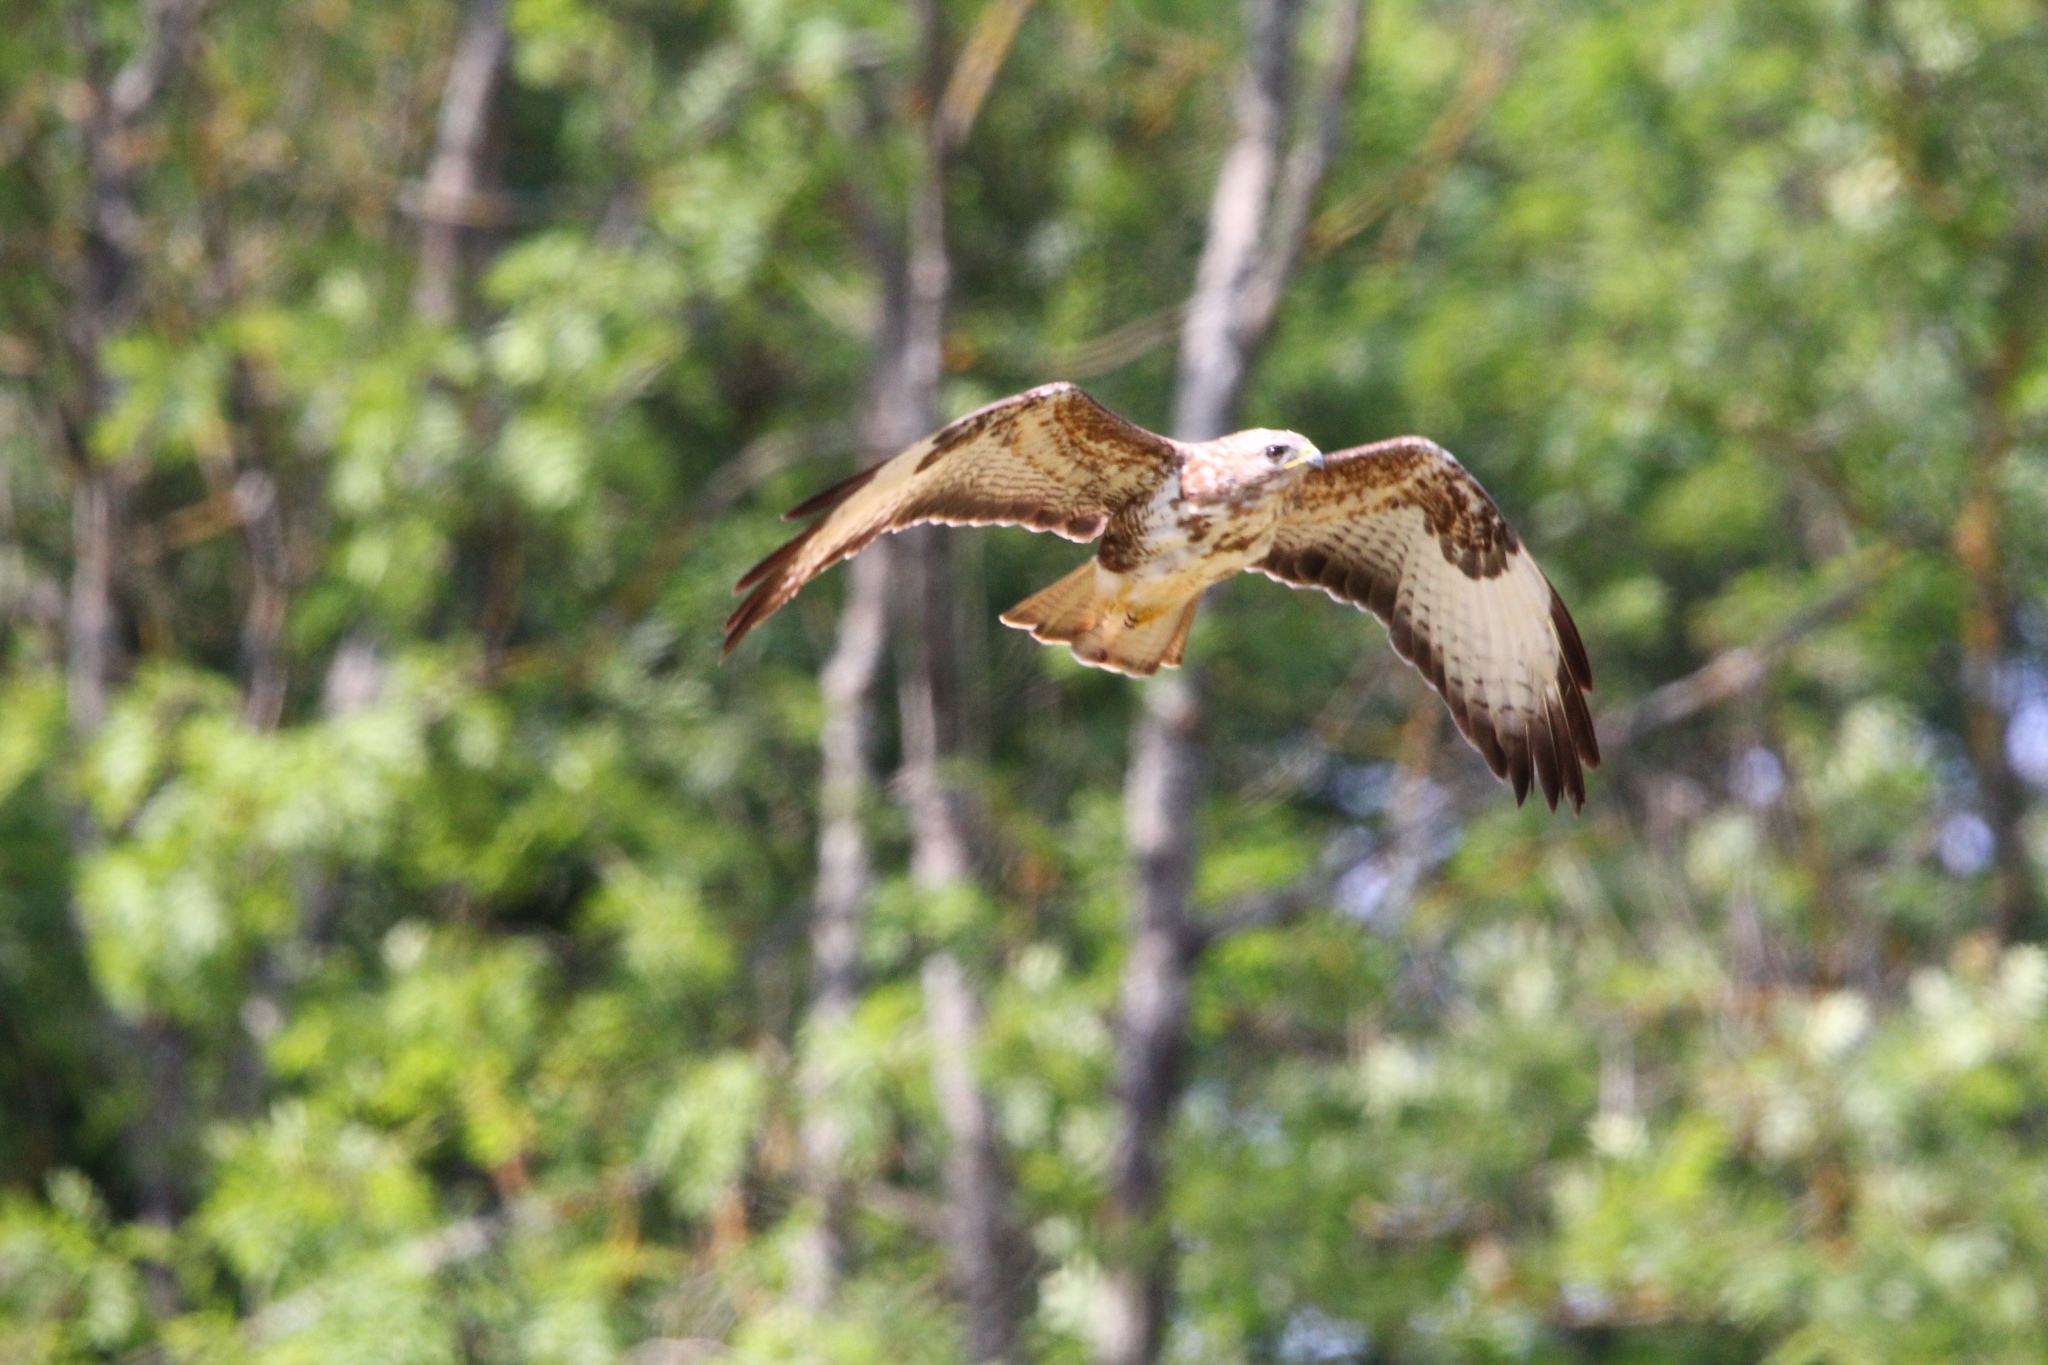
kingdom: Animalia
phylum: Chordata
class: Aves
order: Accipitriformes
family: Accipitridae
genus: Buteo
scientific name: Buteo buteo
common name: Common buzzard
